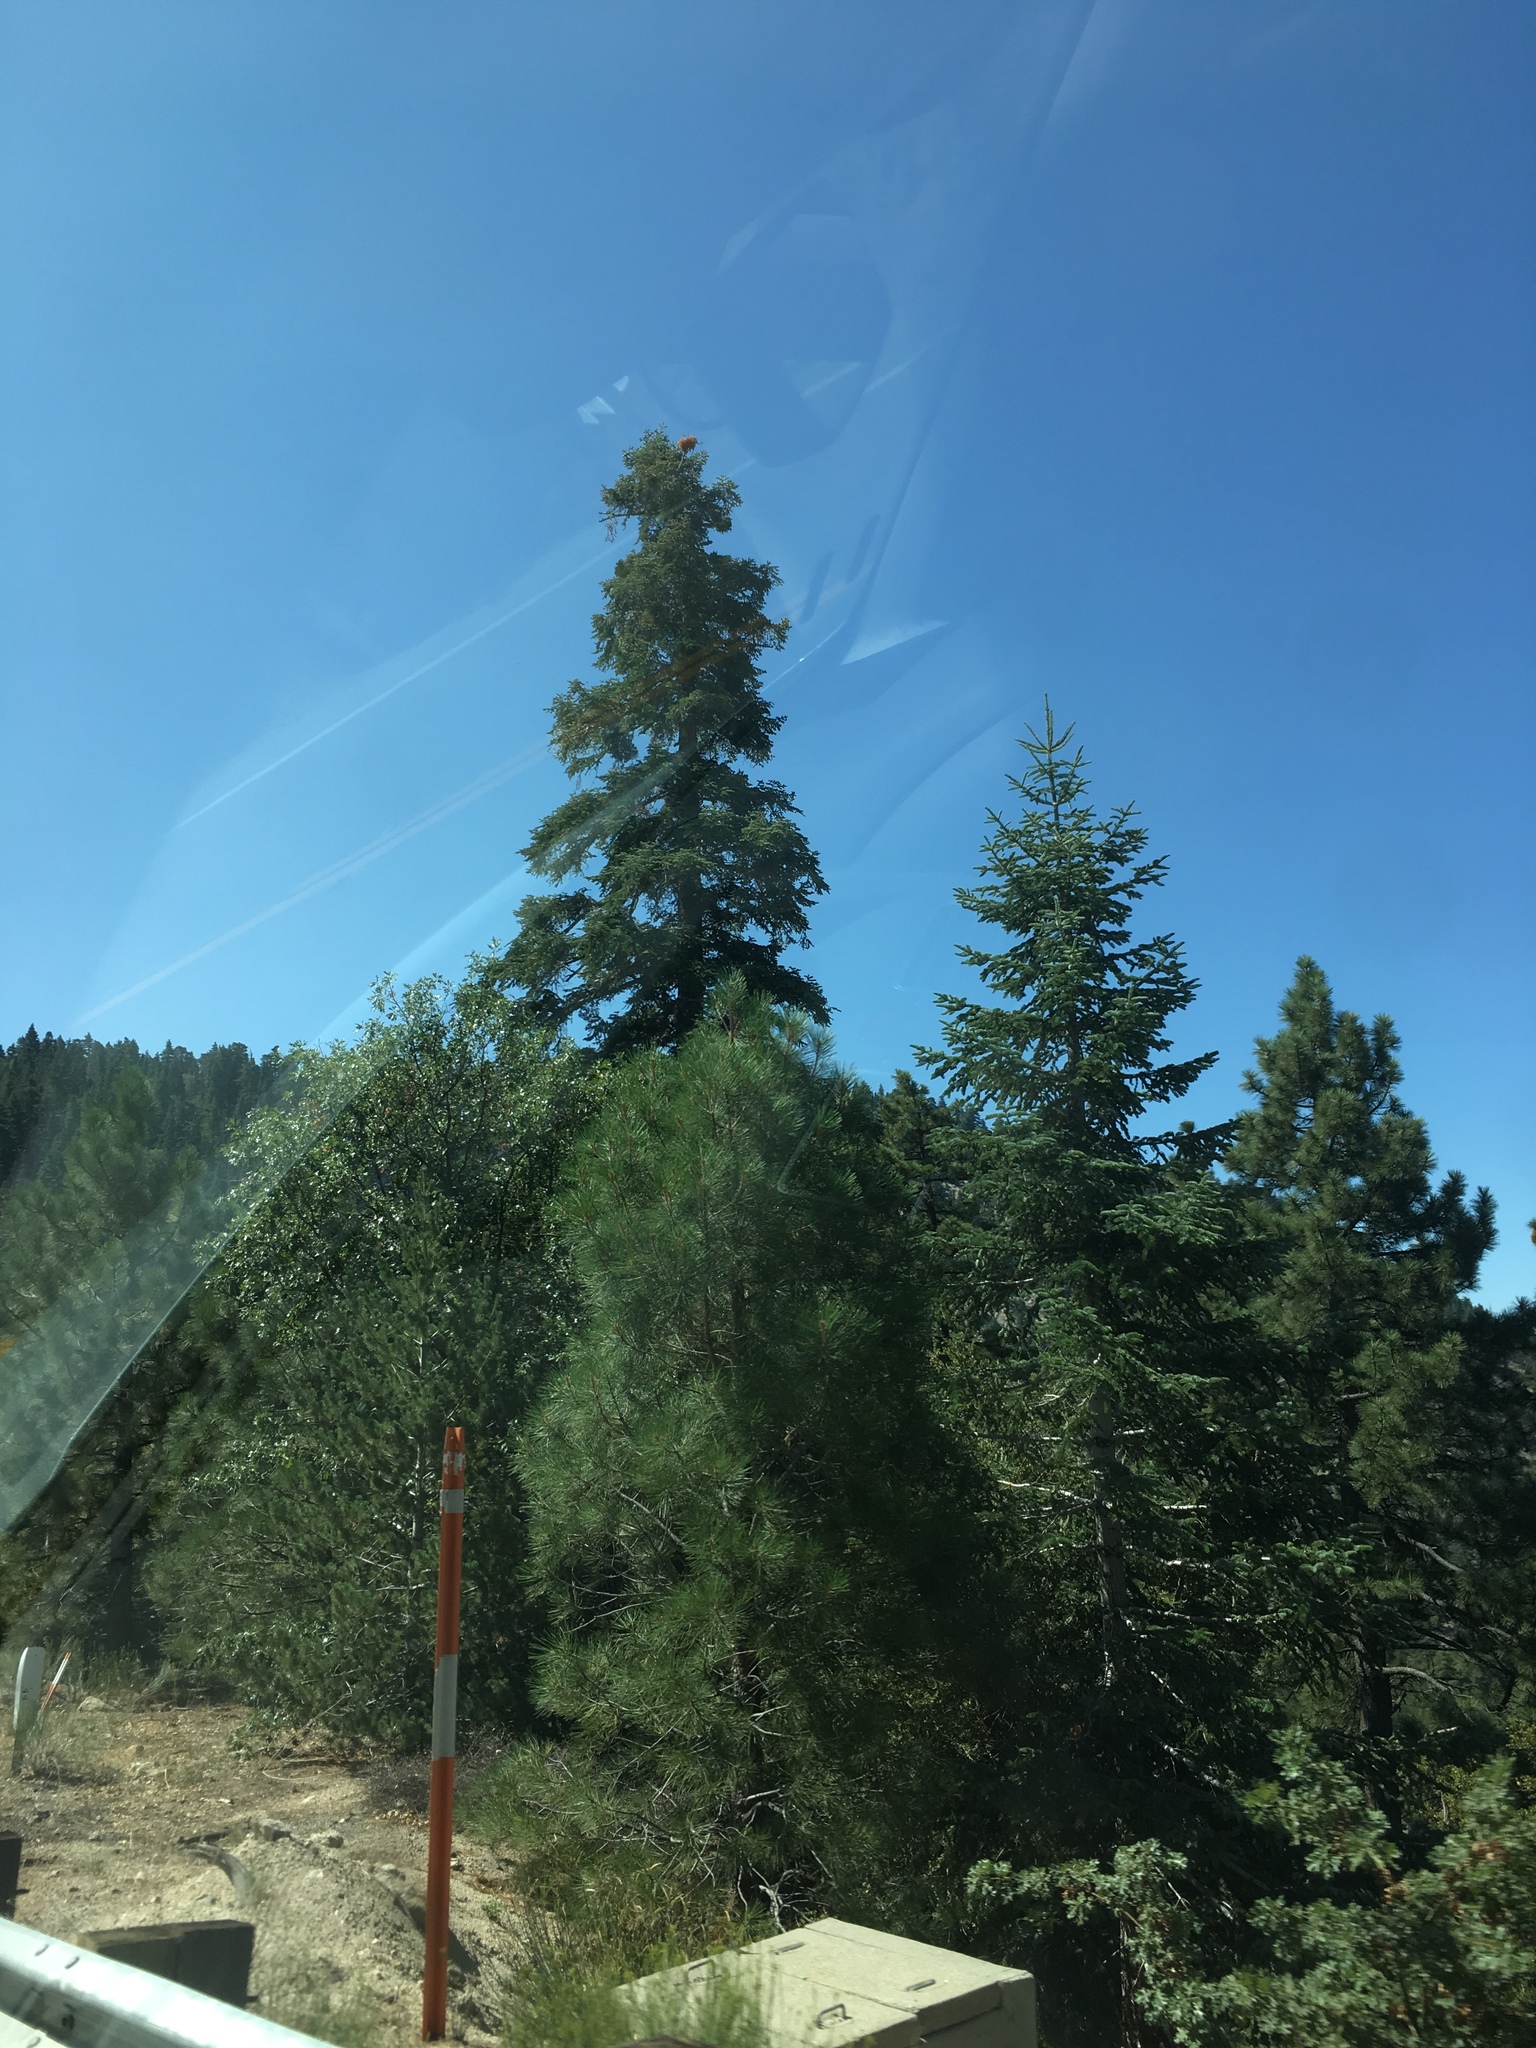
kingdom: Plantae
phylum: Tracheophyta
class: Pinopsida
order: Pinales
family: Pinaceae
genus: Abies
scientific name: Abies concolor
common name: Colorado fir
